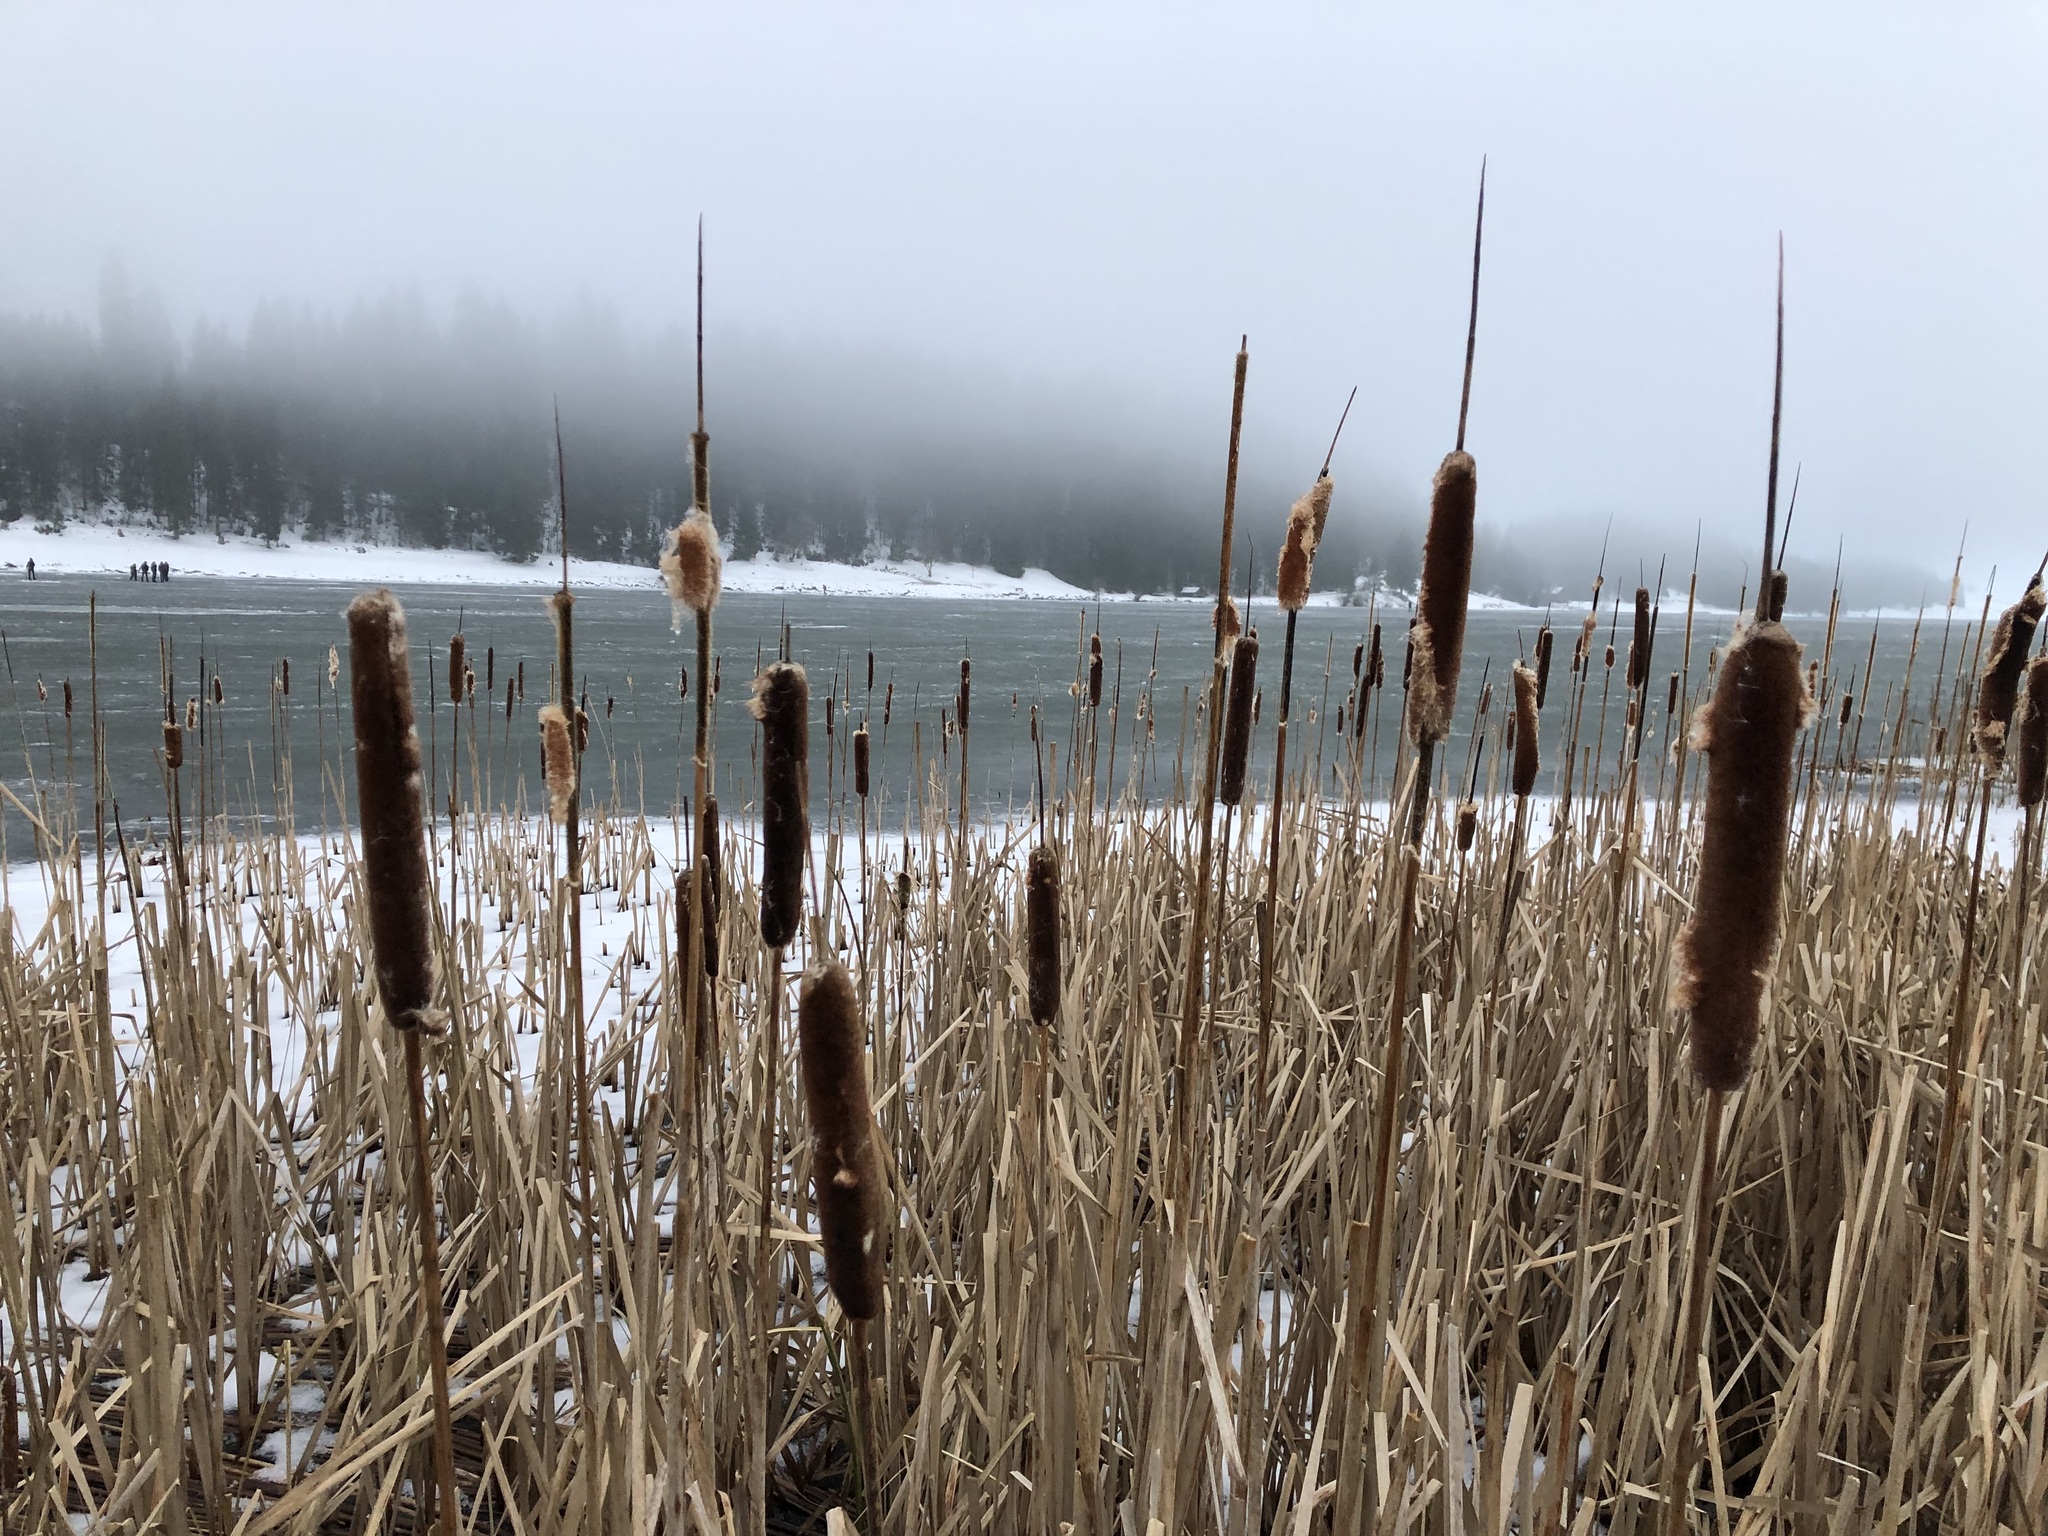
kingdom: Plantae
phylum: Tracheophyta
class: Liliopsida
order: Poales
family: Typhaceae
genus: Typha
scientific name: Typha latifolia
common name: Broadleaf cattail
